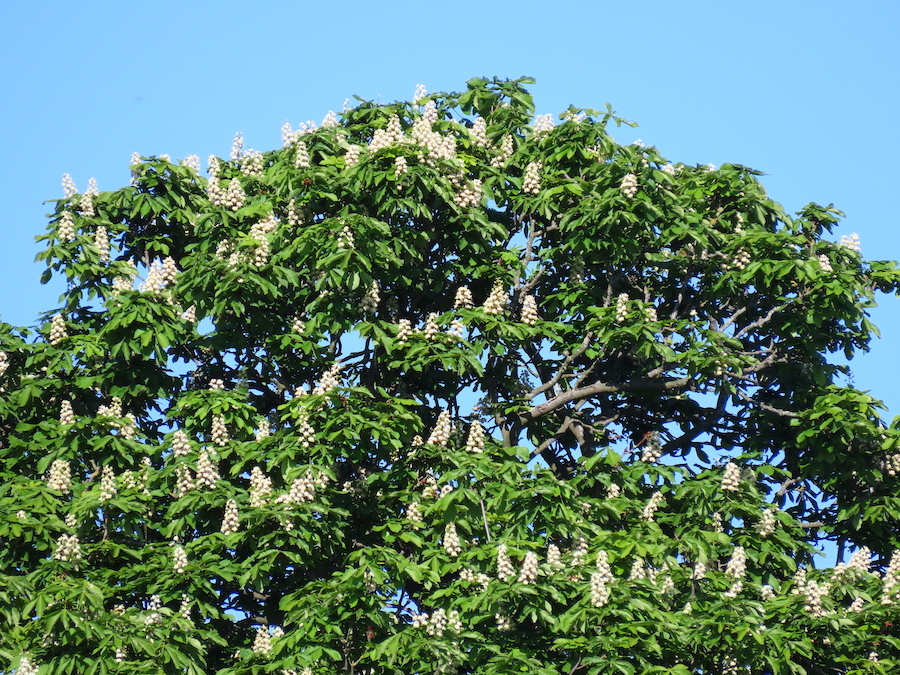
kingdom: Plantae
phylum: Tracheophyta
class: Magnoliopsida
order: Sapindales
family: Sapindaceae
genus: Aesculus
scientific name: Aesculus hippocastanum
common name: Horse-chestnut
